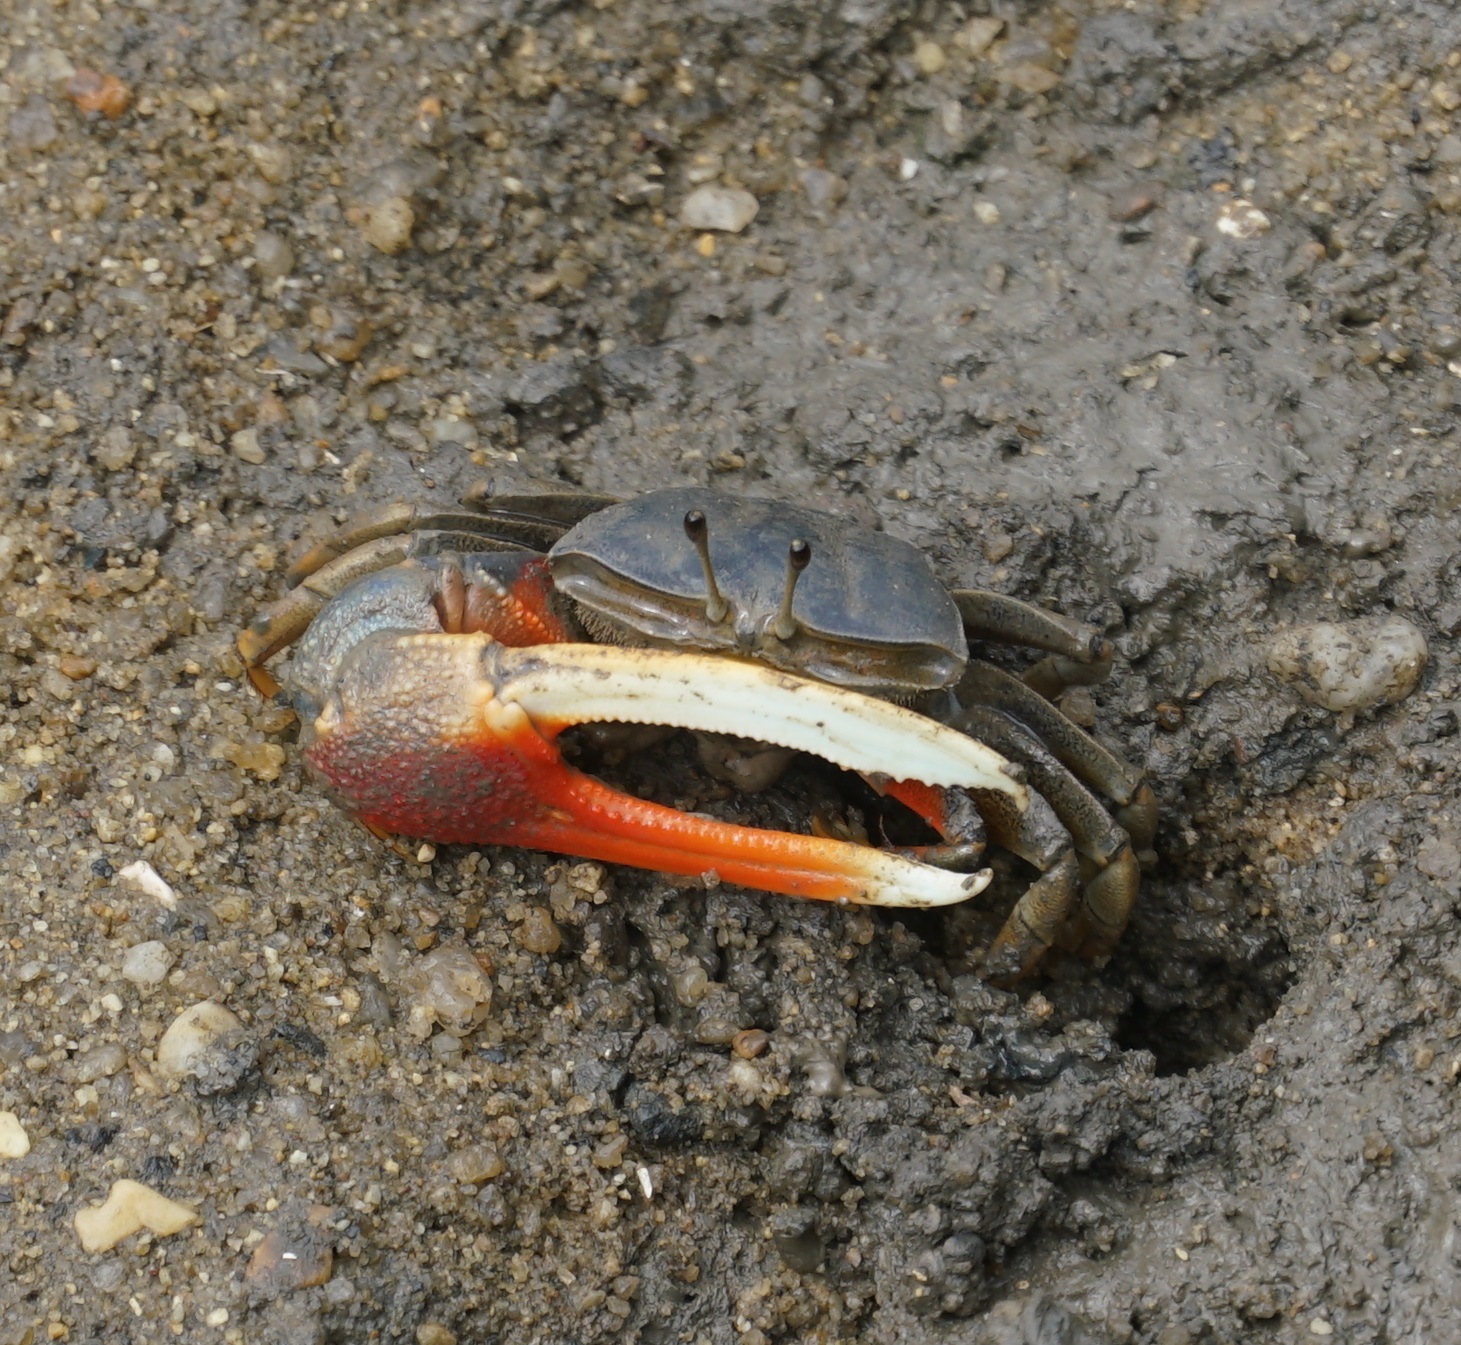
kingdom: Animalia
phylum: Arthropoda
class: Malacostraca
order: Decapoda
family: Ocypodidae
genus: Tubuca
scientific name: Tubuca dussumieri
